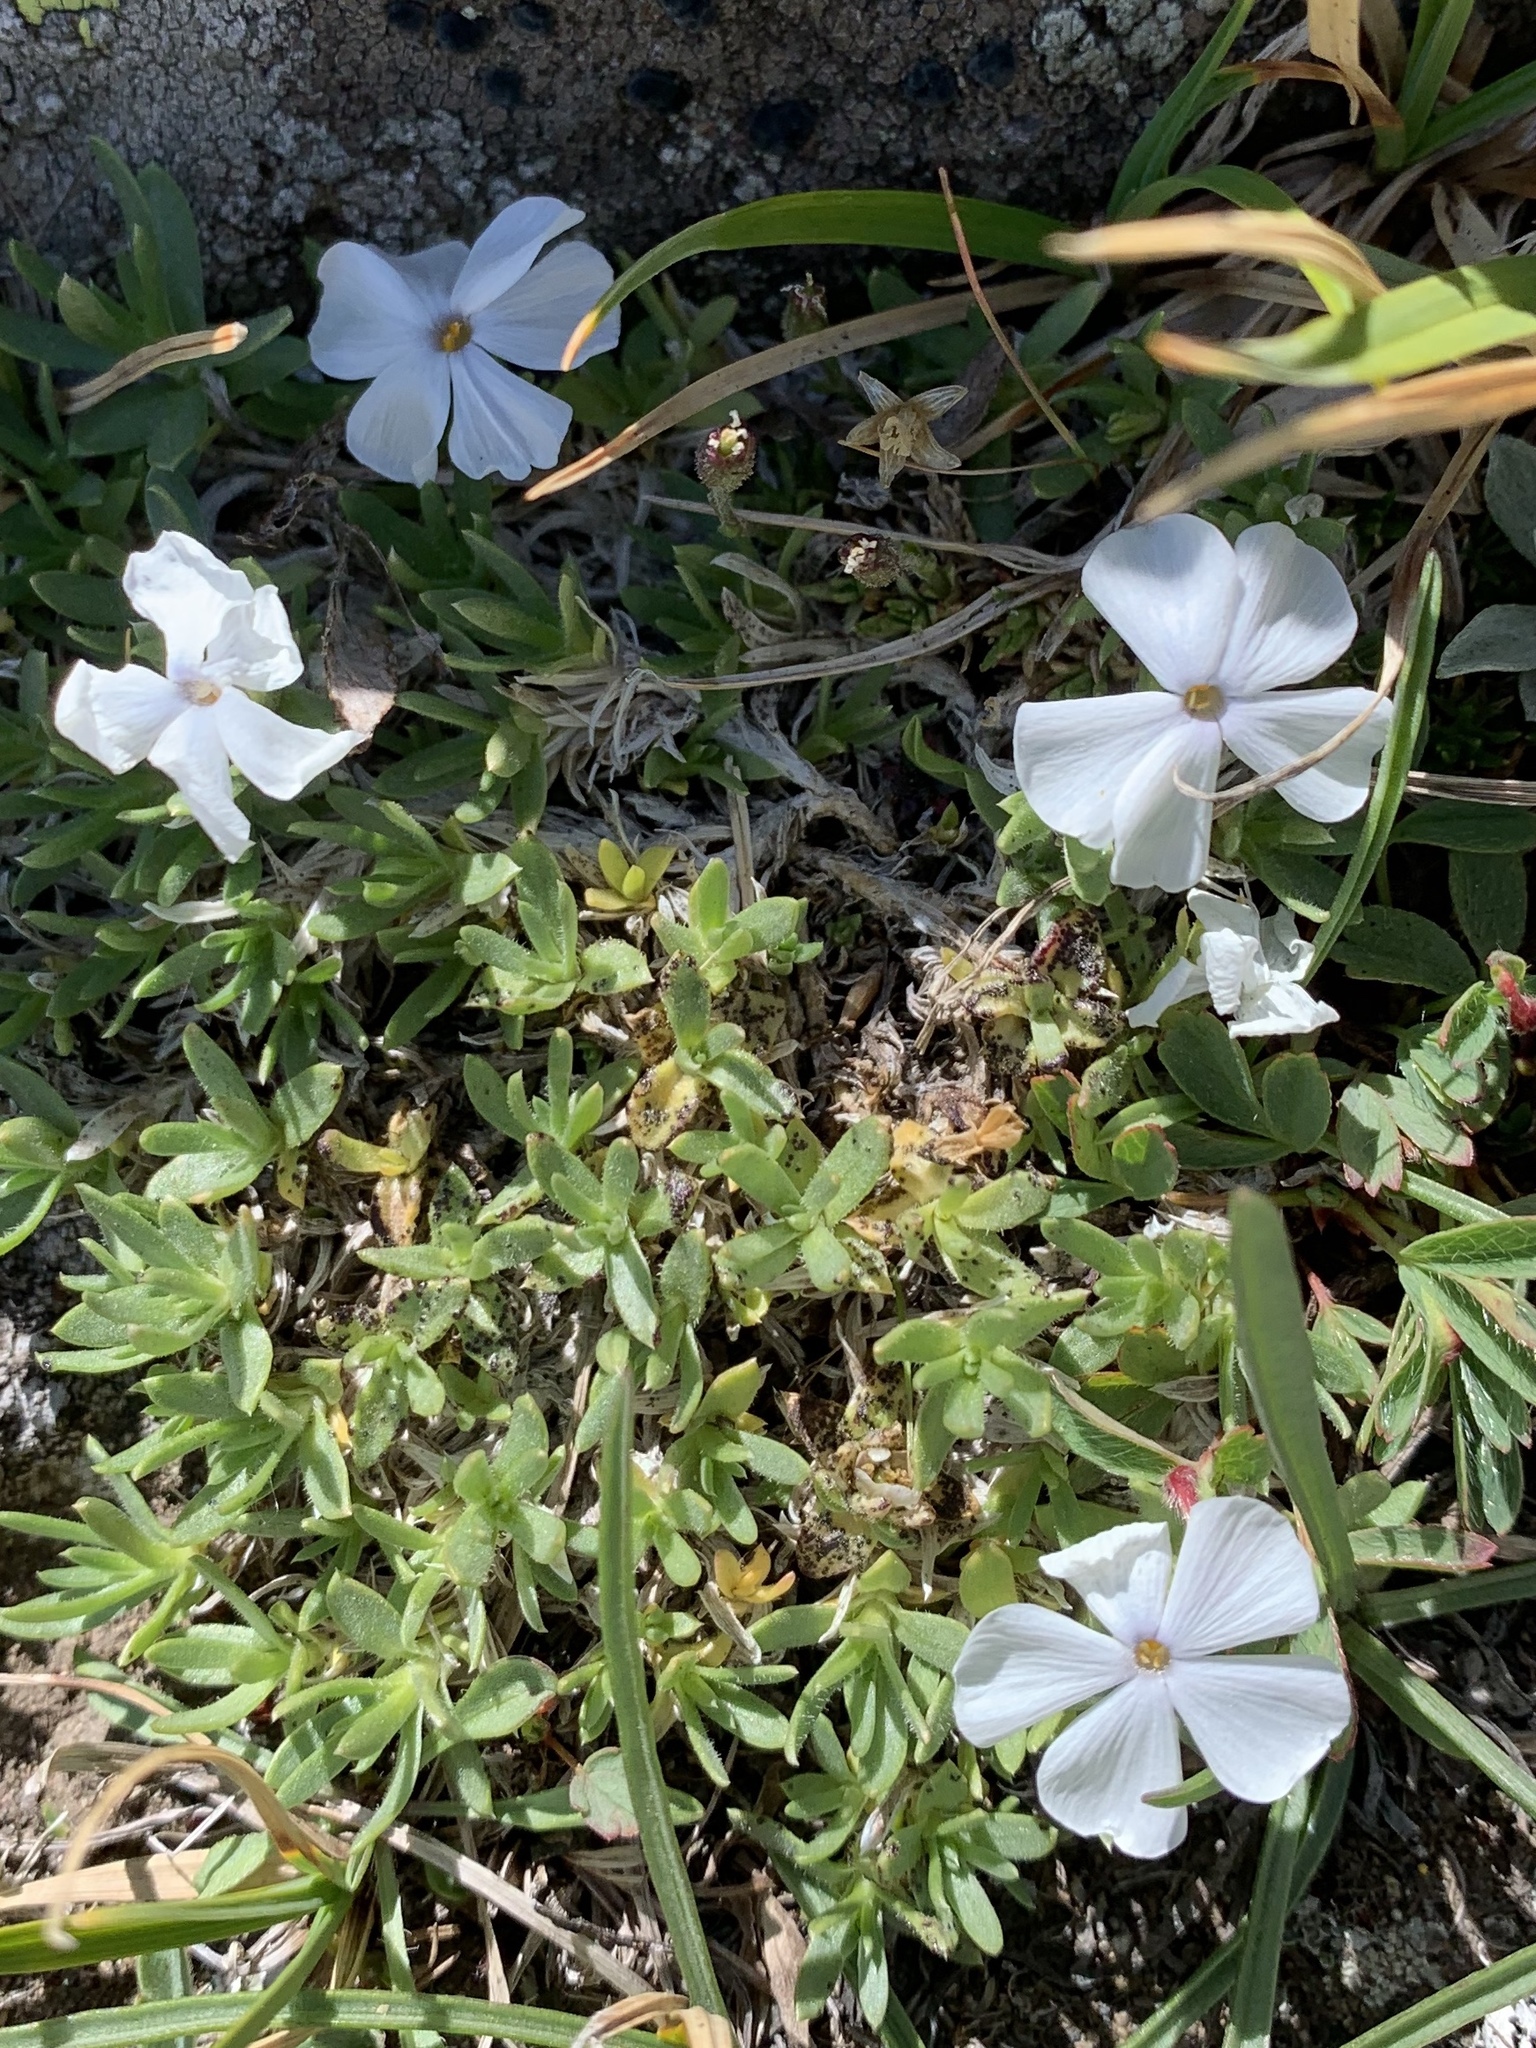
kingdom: Plantae
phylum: Tracheophyta
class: Magnoliopsida
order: Ericales
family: Polemoniaceae
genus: Phlox
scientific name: Phlox pulvinata
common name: Cushion phlox
